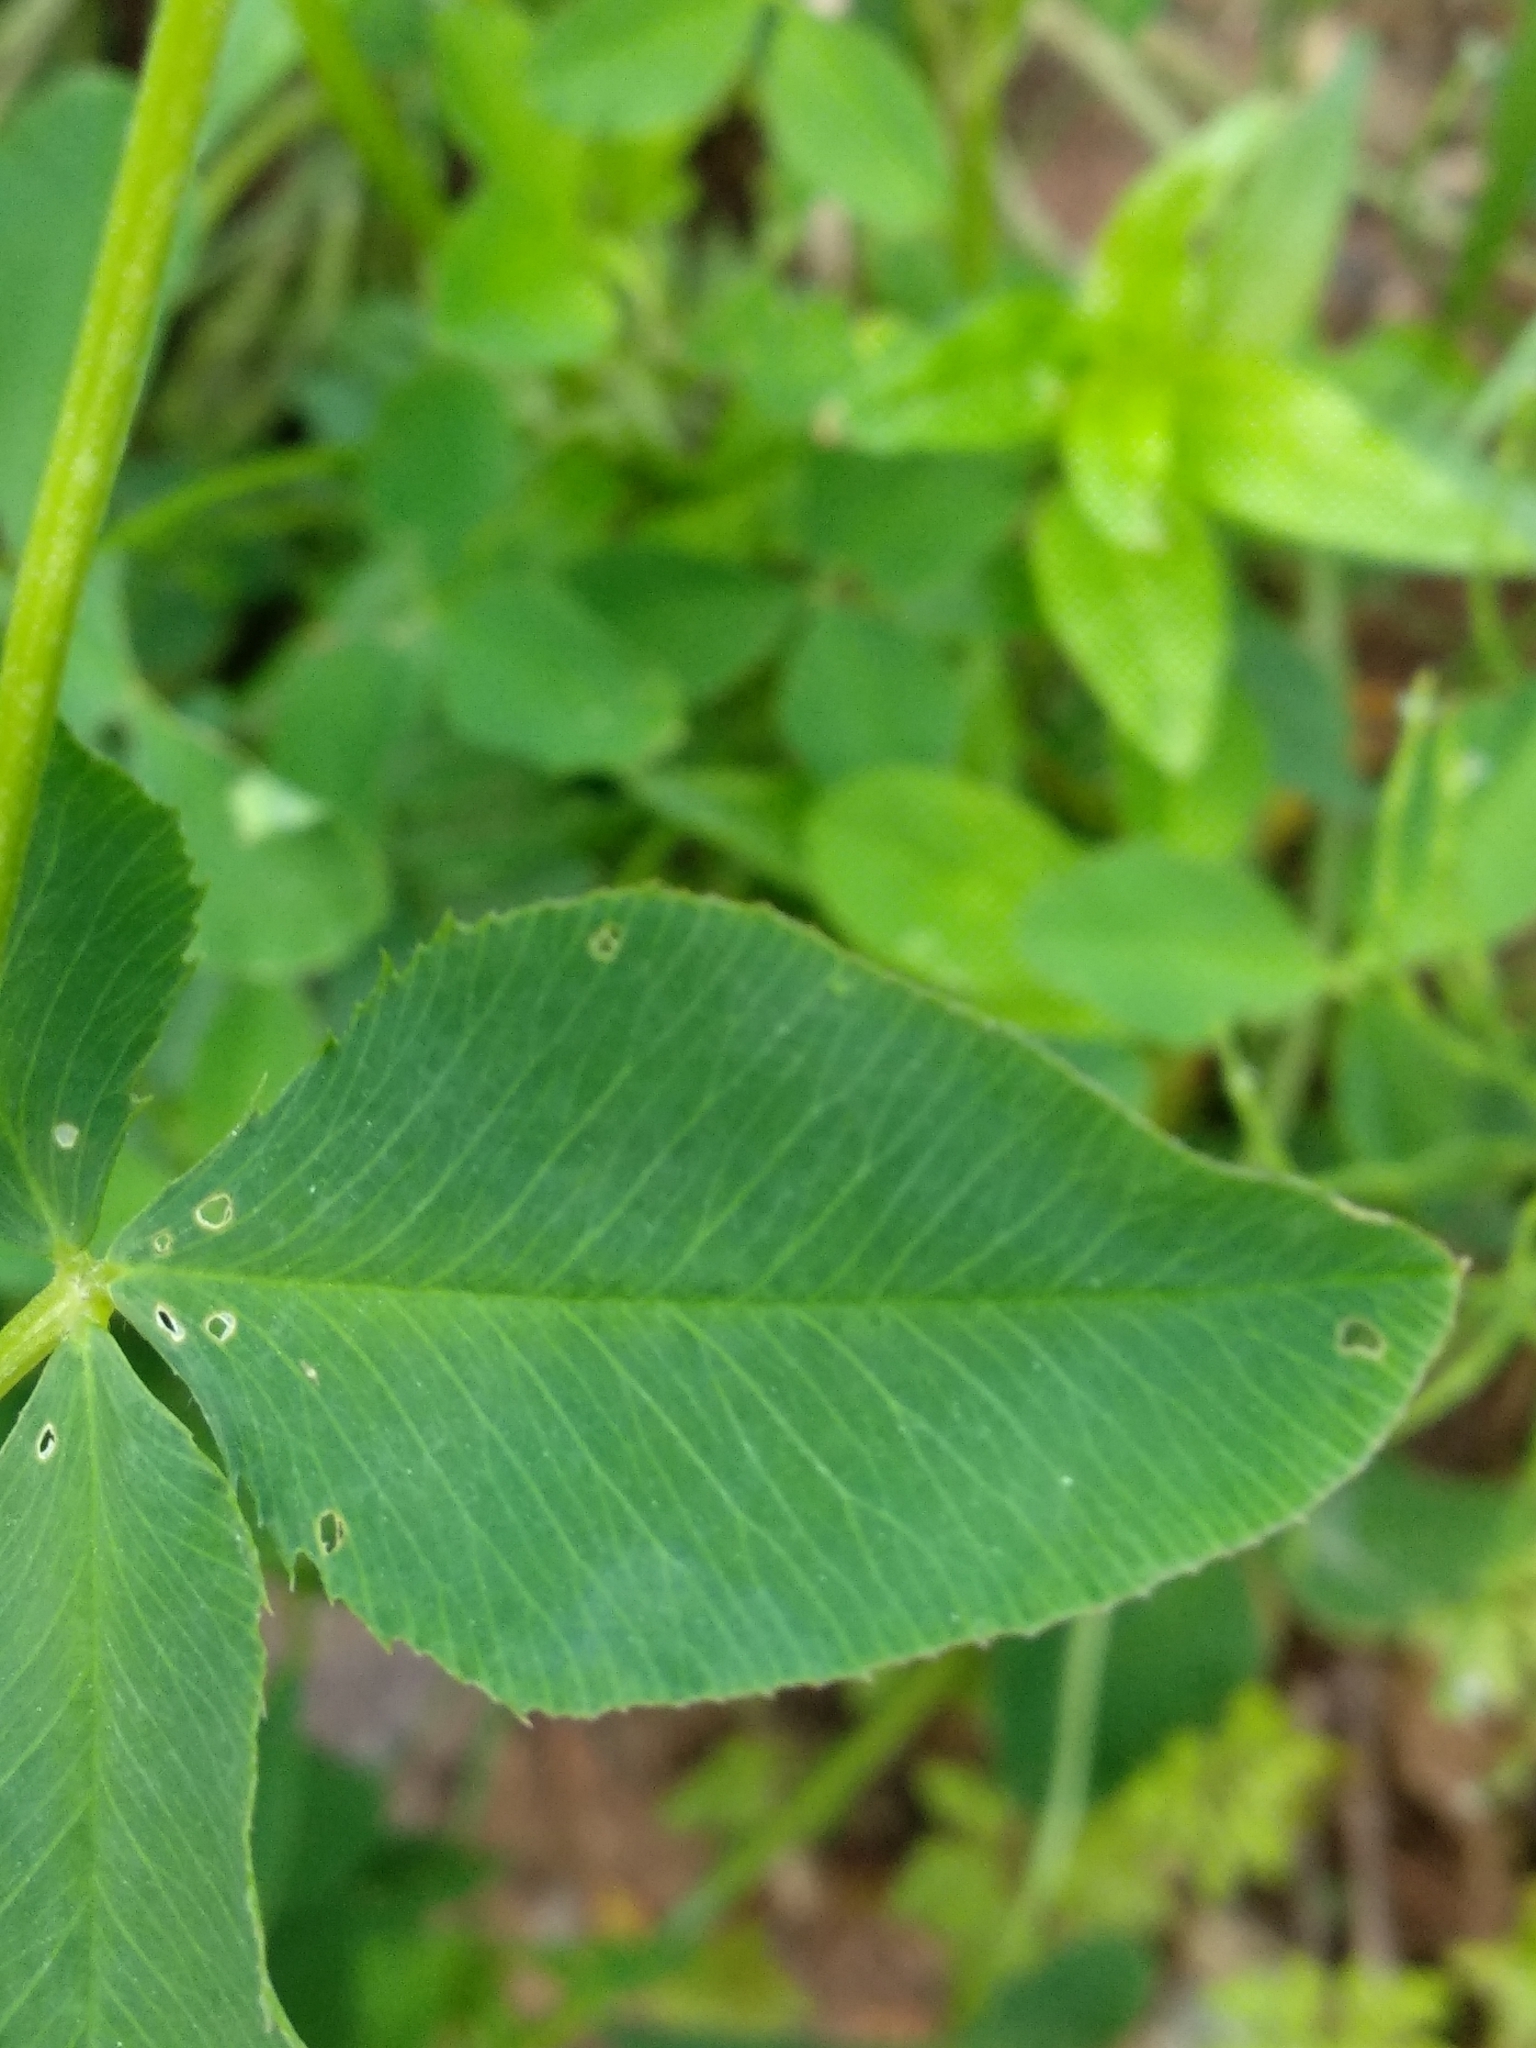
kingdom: Plantae
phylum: Tracheophyta
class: Magnoliopsida
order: Fabales
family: Fabaceae
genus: Trifolium
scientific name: Trifolium hybridum
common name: Alsike clover
